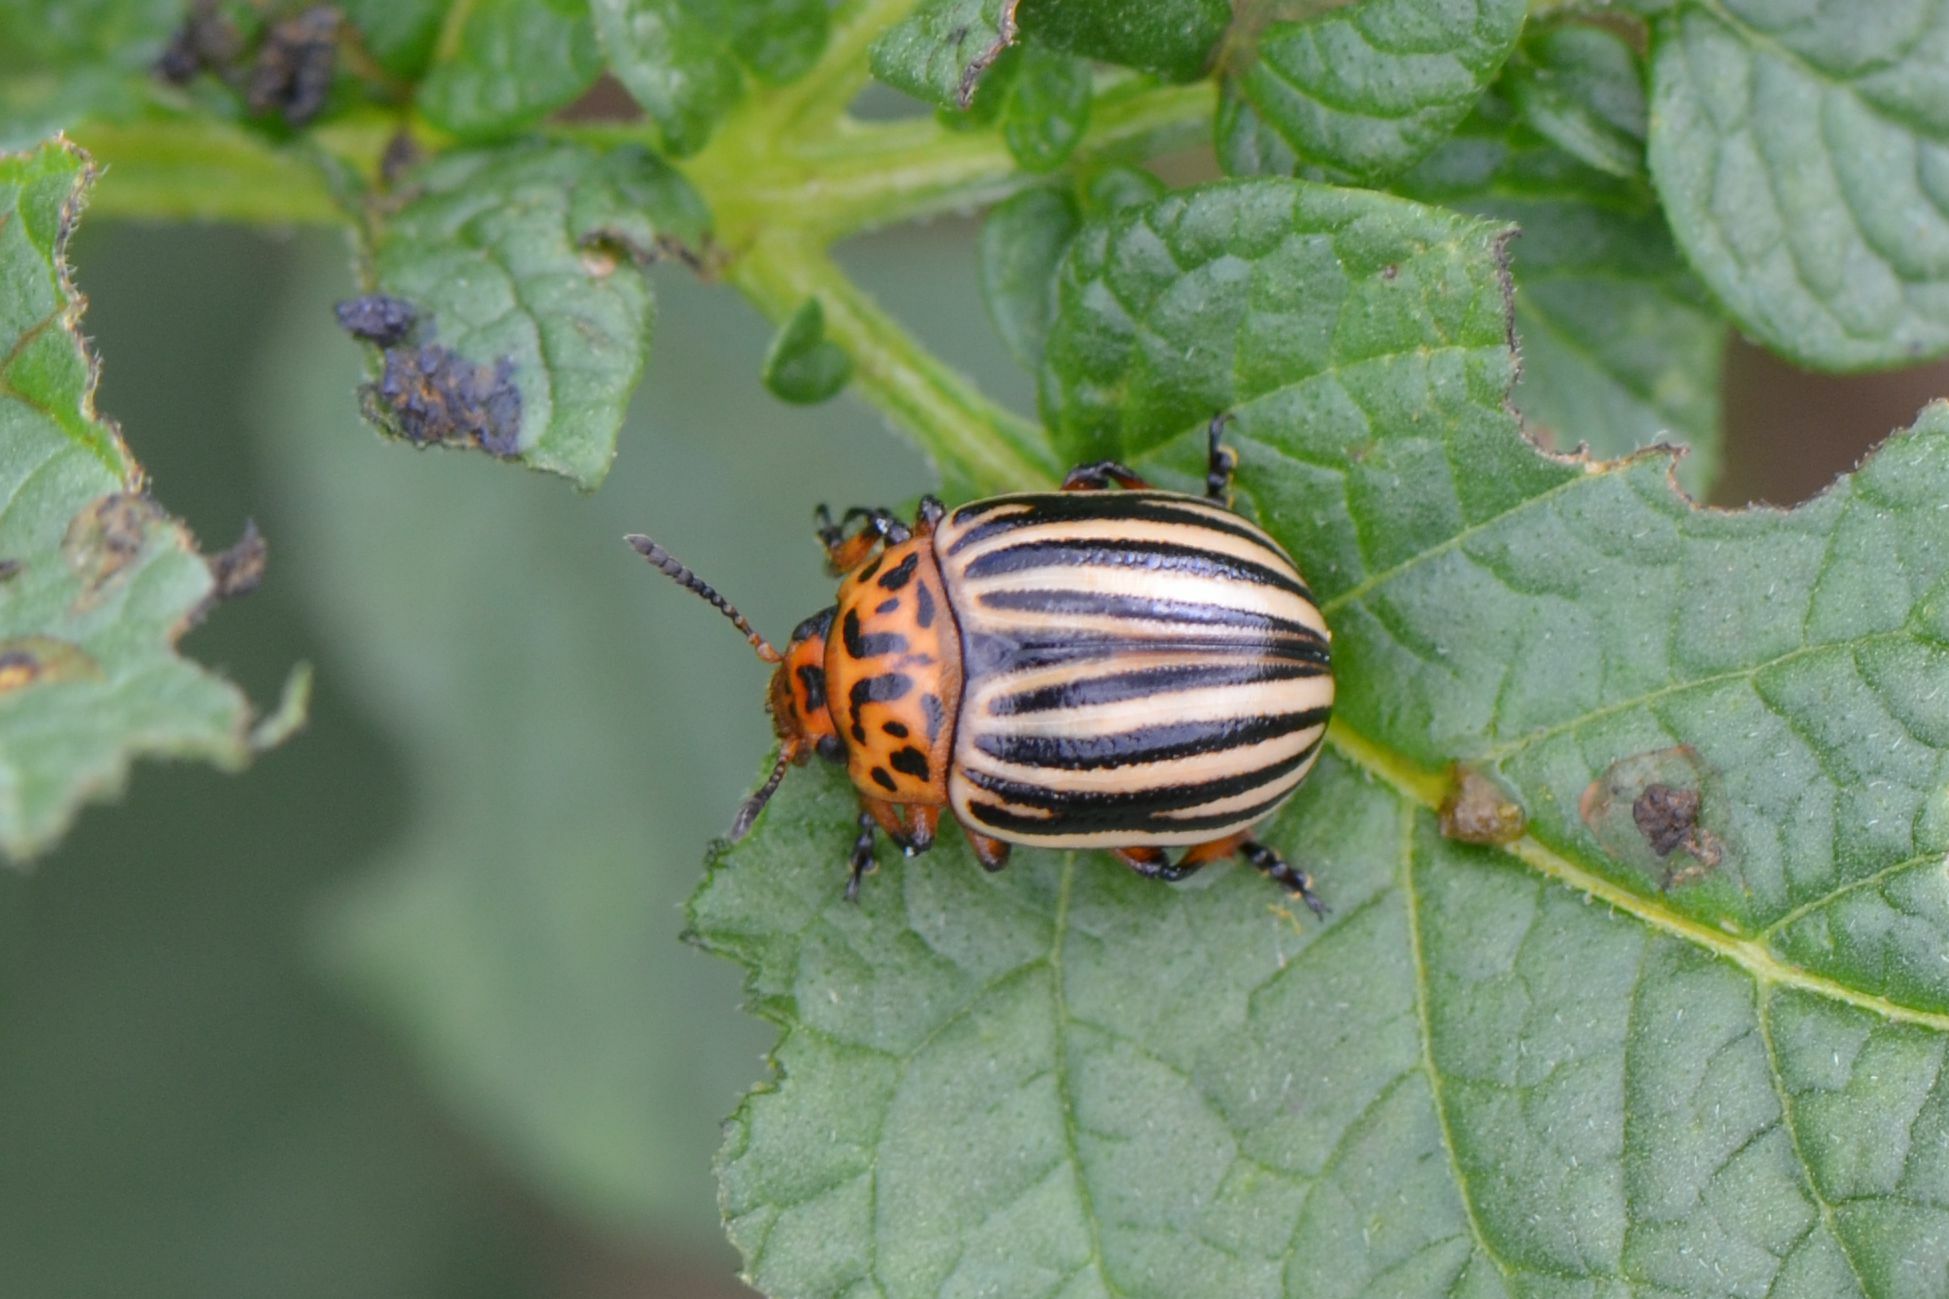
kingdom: Animalia
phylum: Arthropoda
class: Insecta
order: Coleoptera
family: Chrysomelidae
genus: Leptinotarsa
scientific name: Leptinotarsa decemlineata
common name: Colorado potato beetle
